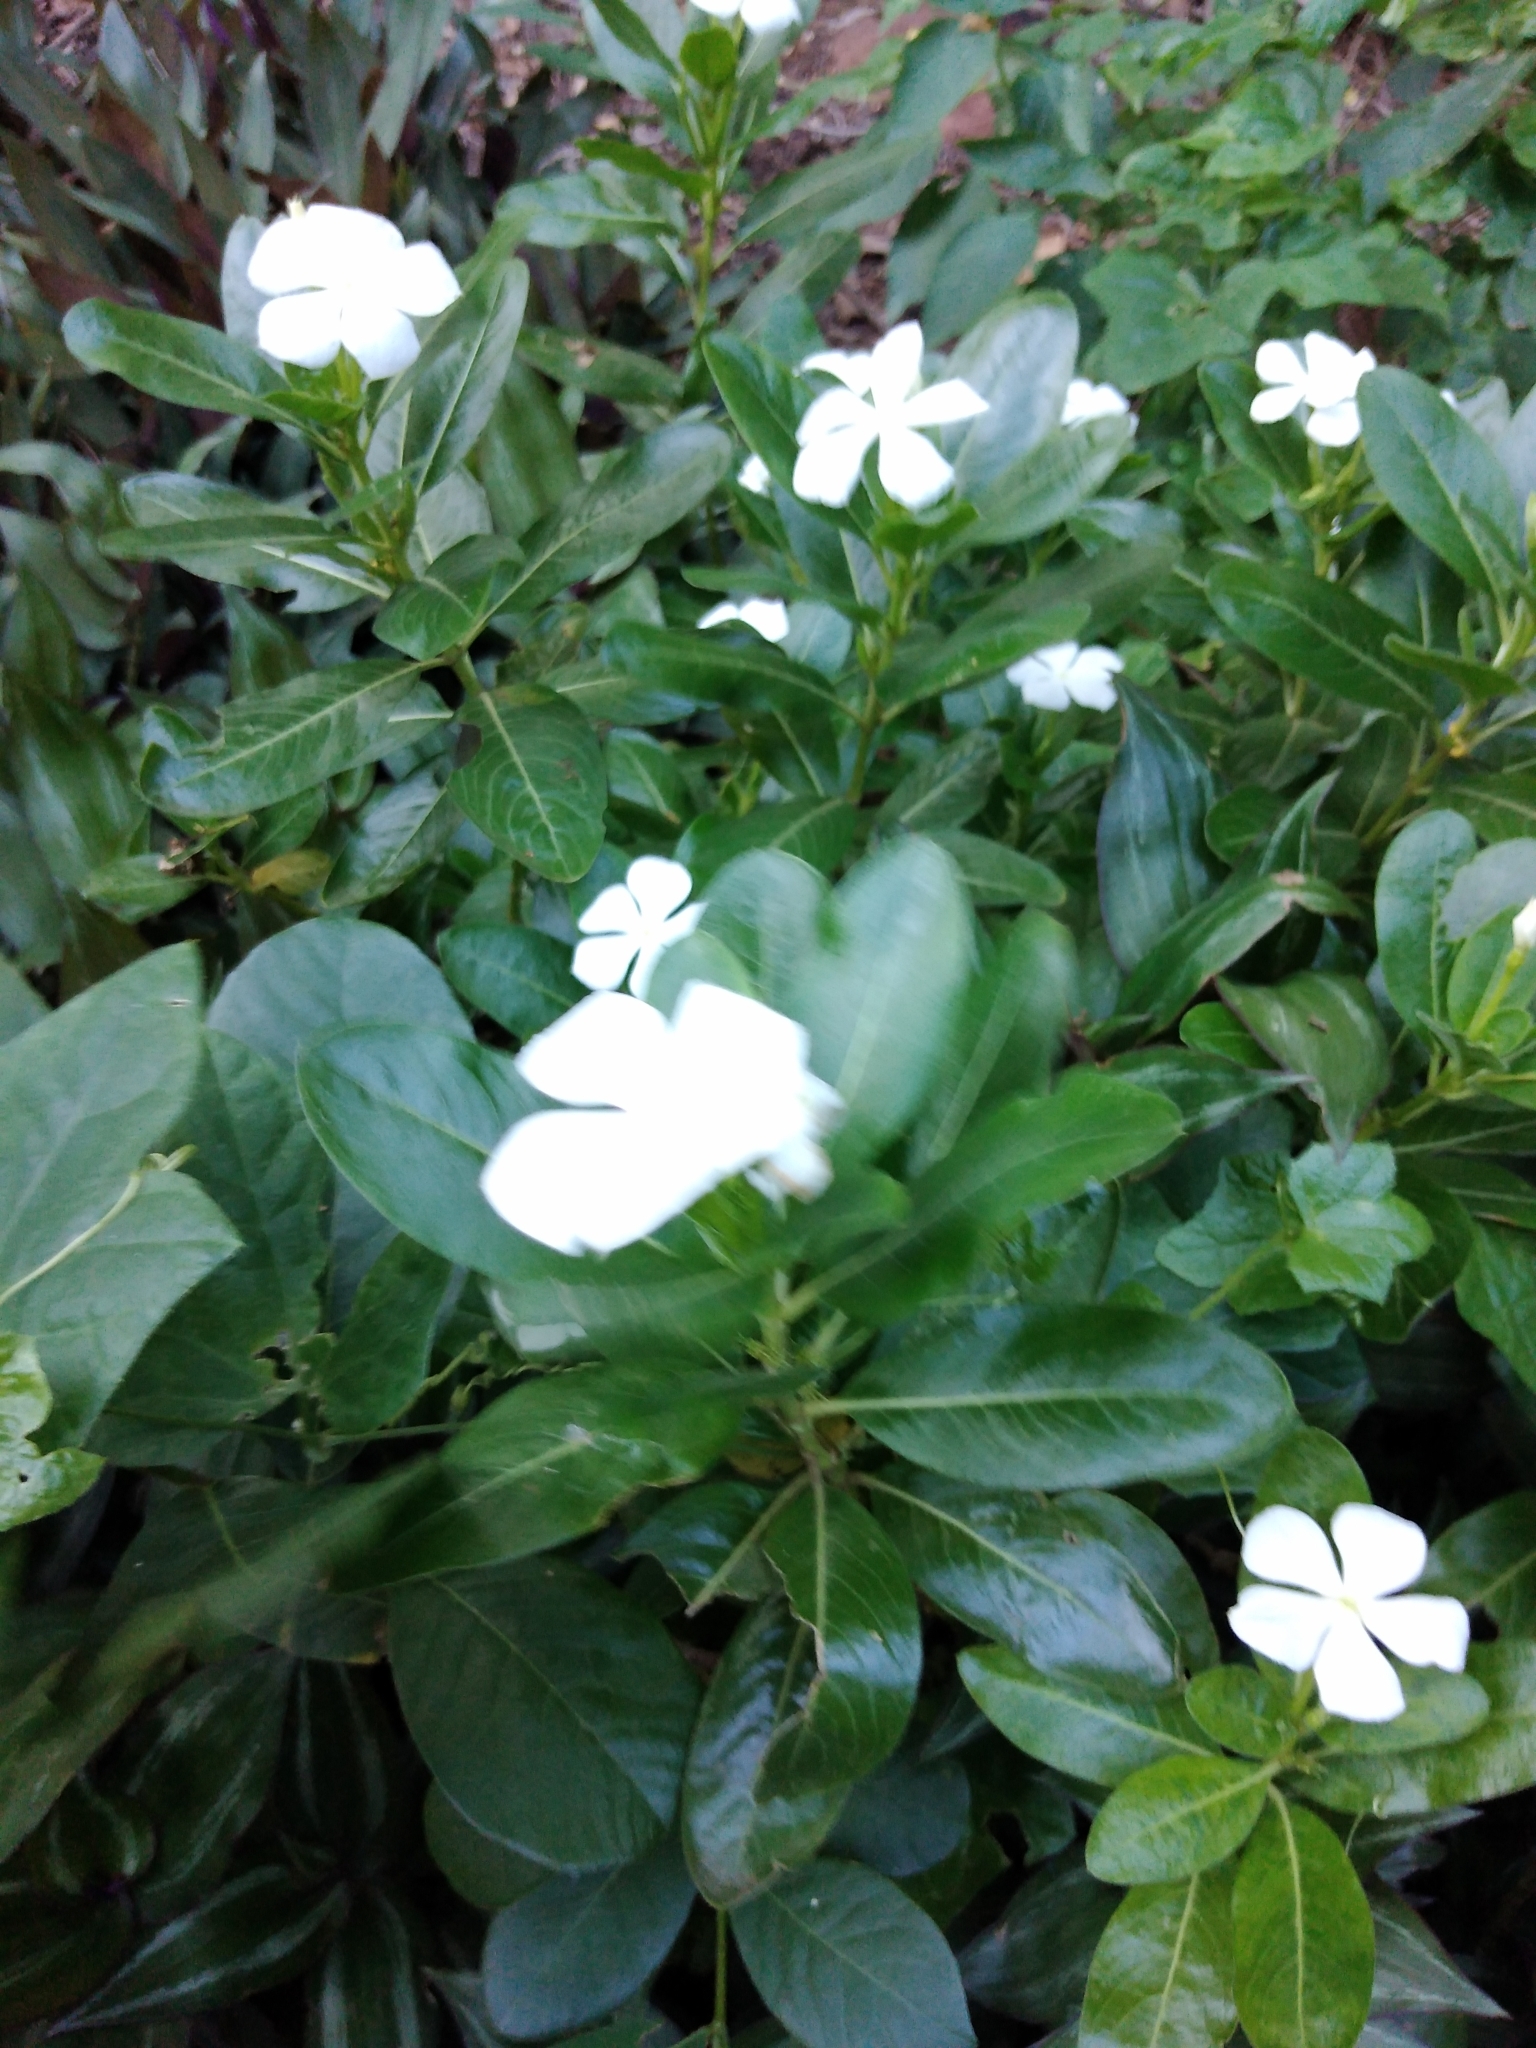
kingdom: Plantae
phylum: Tracheophyta
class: Magnoliopsida
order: Gentianales
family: Apocynaceae
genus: Catharanthus
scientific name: Catharanthus roseus
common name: Madagascar periwinkle
